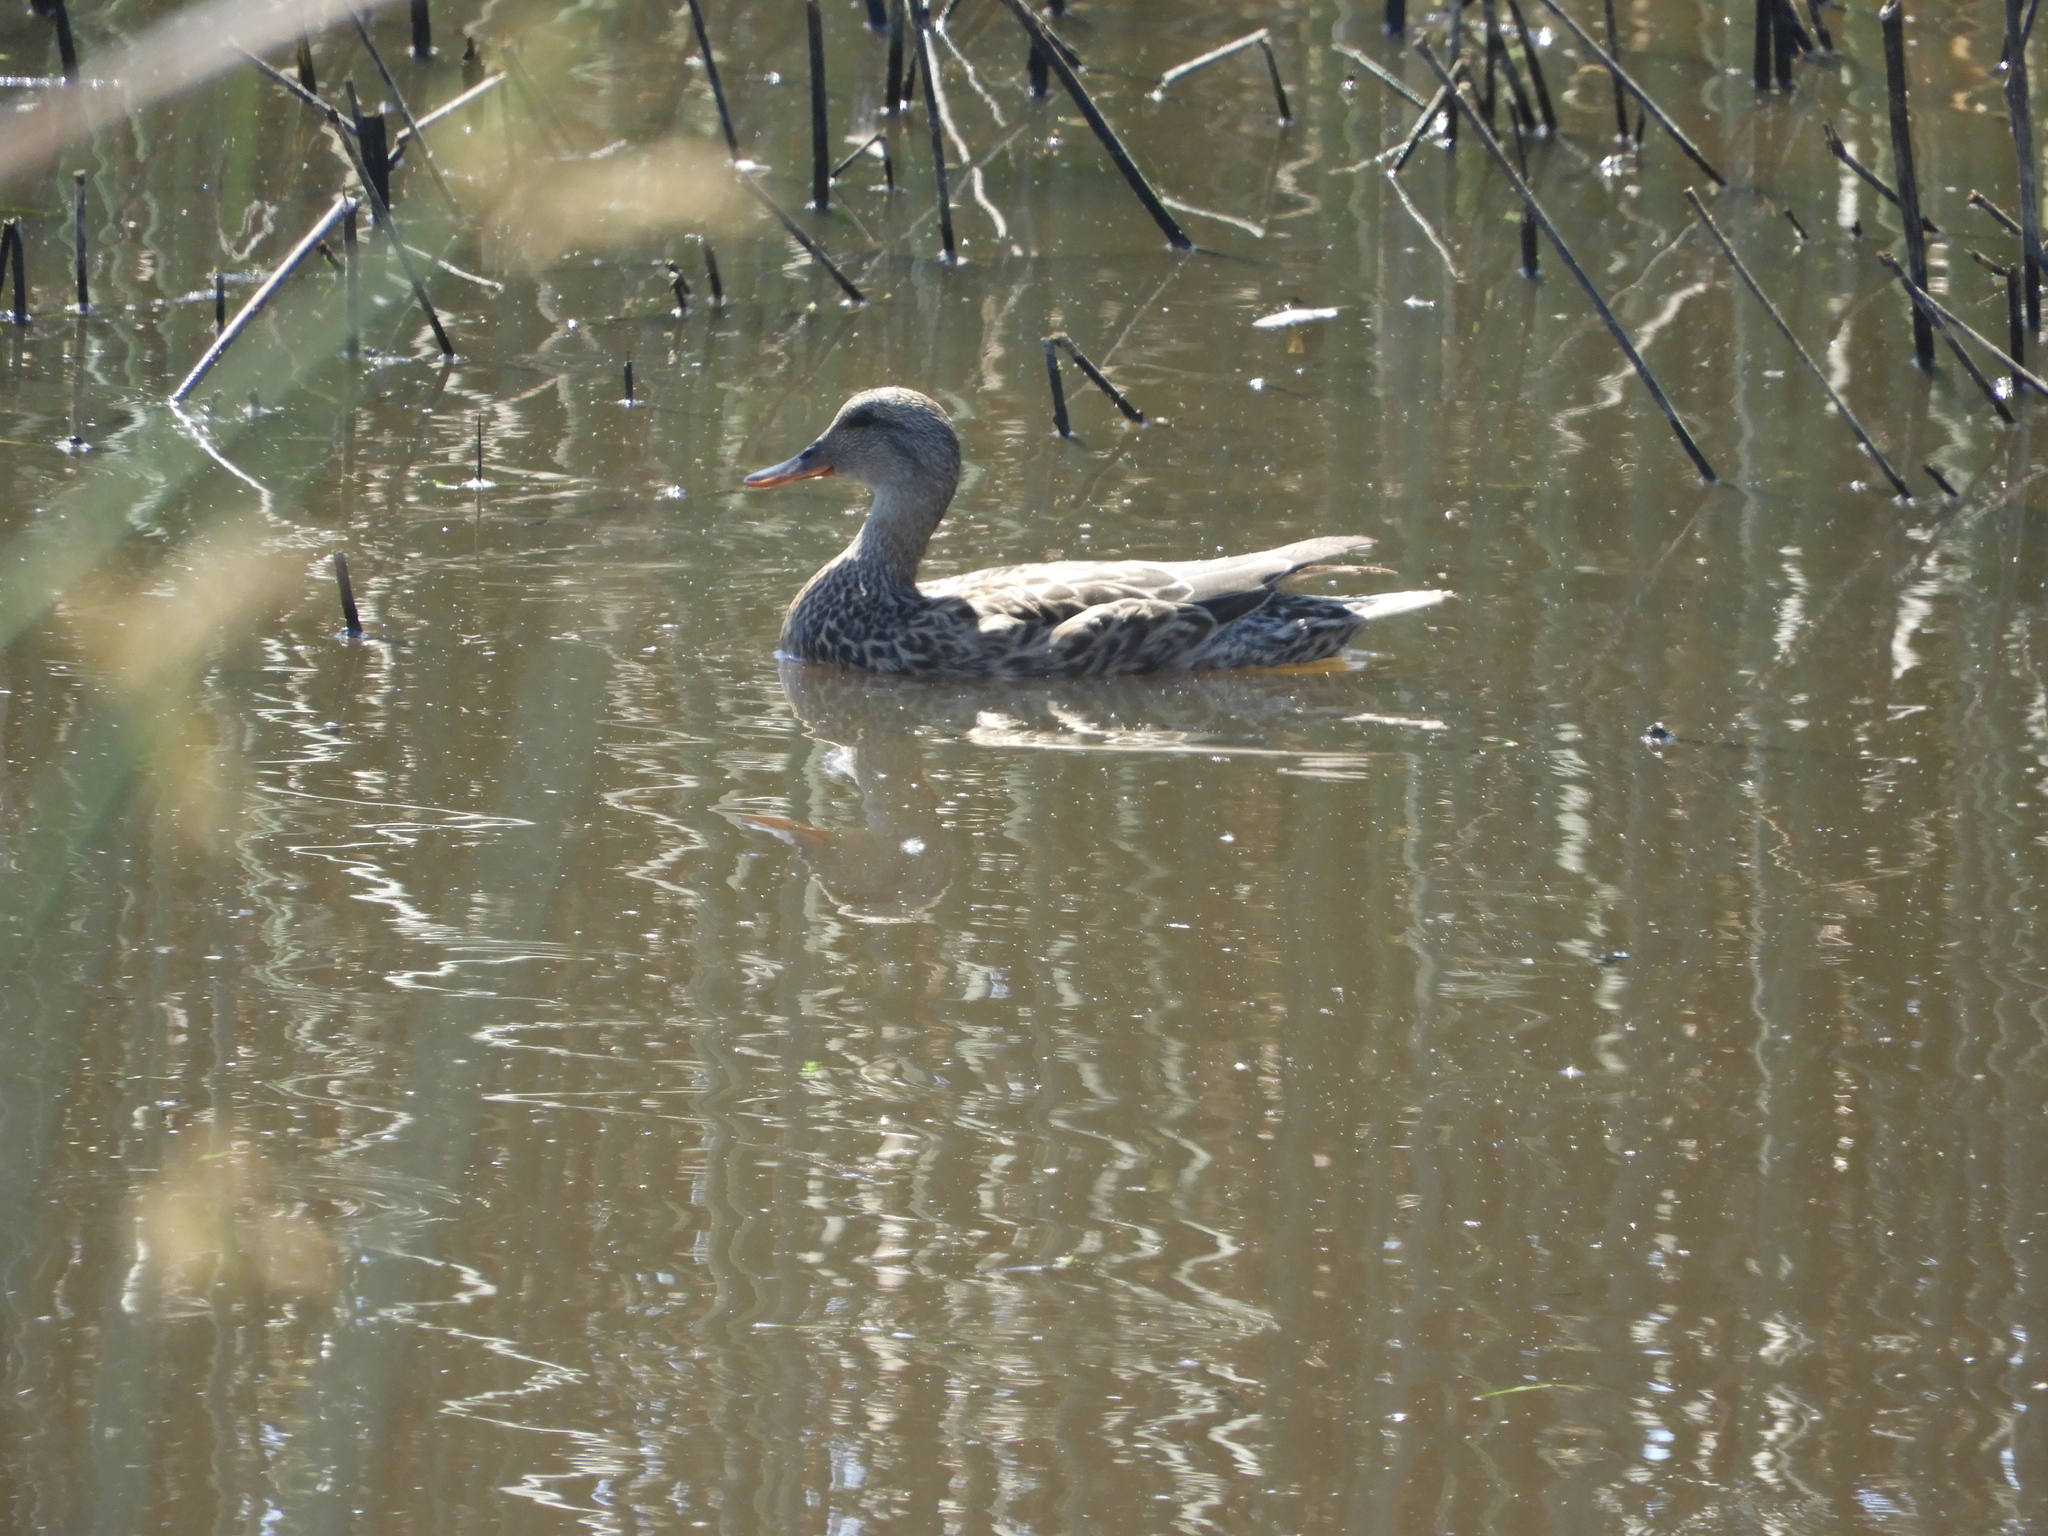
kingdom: Animalia
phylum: Chordata
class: Aves
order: Anseriformes
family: Anatidae
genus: Anas
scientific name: Anas platyrhynchos
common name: Mallard
